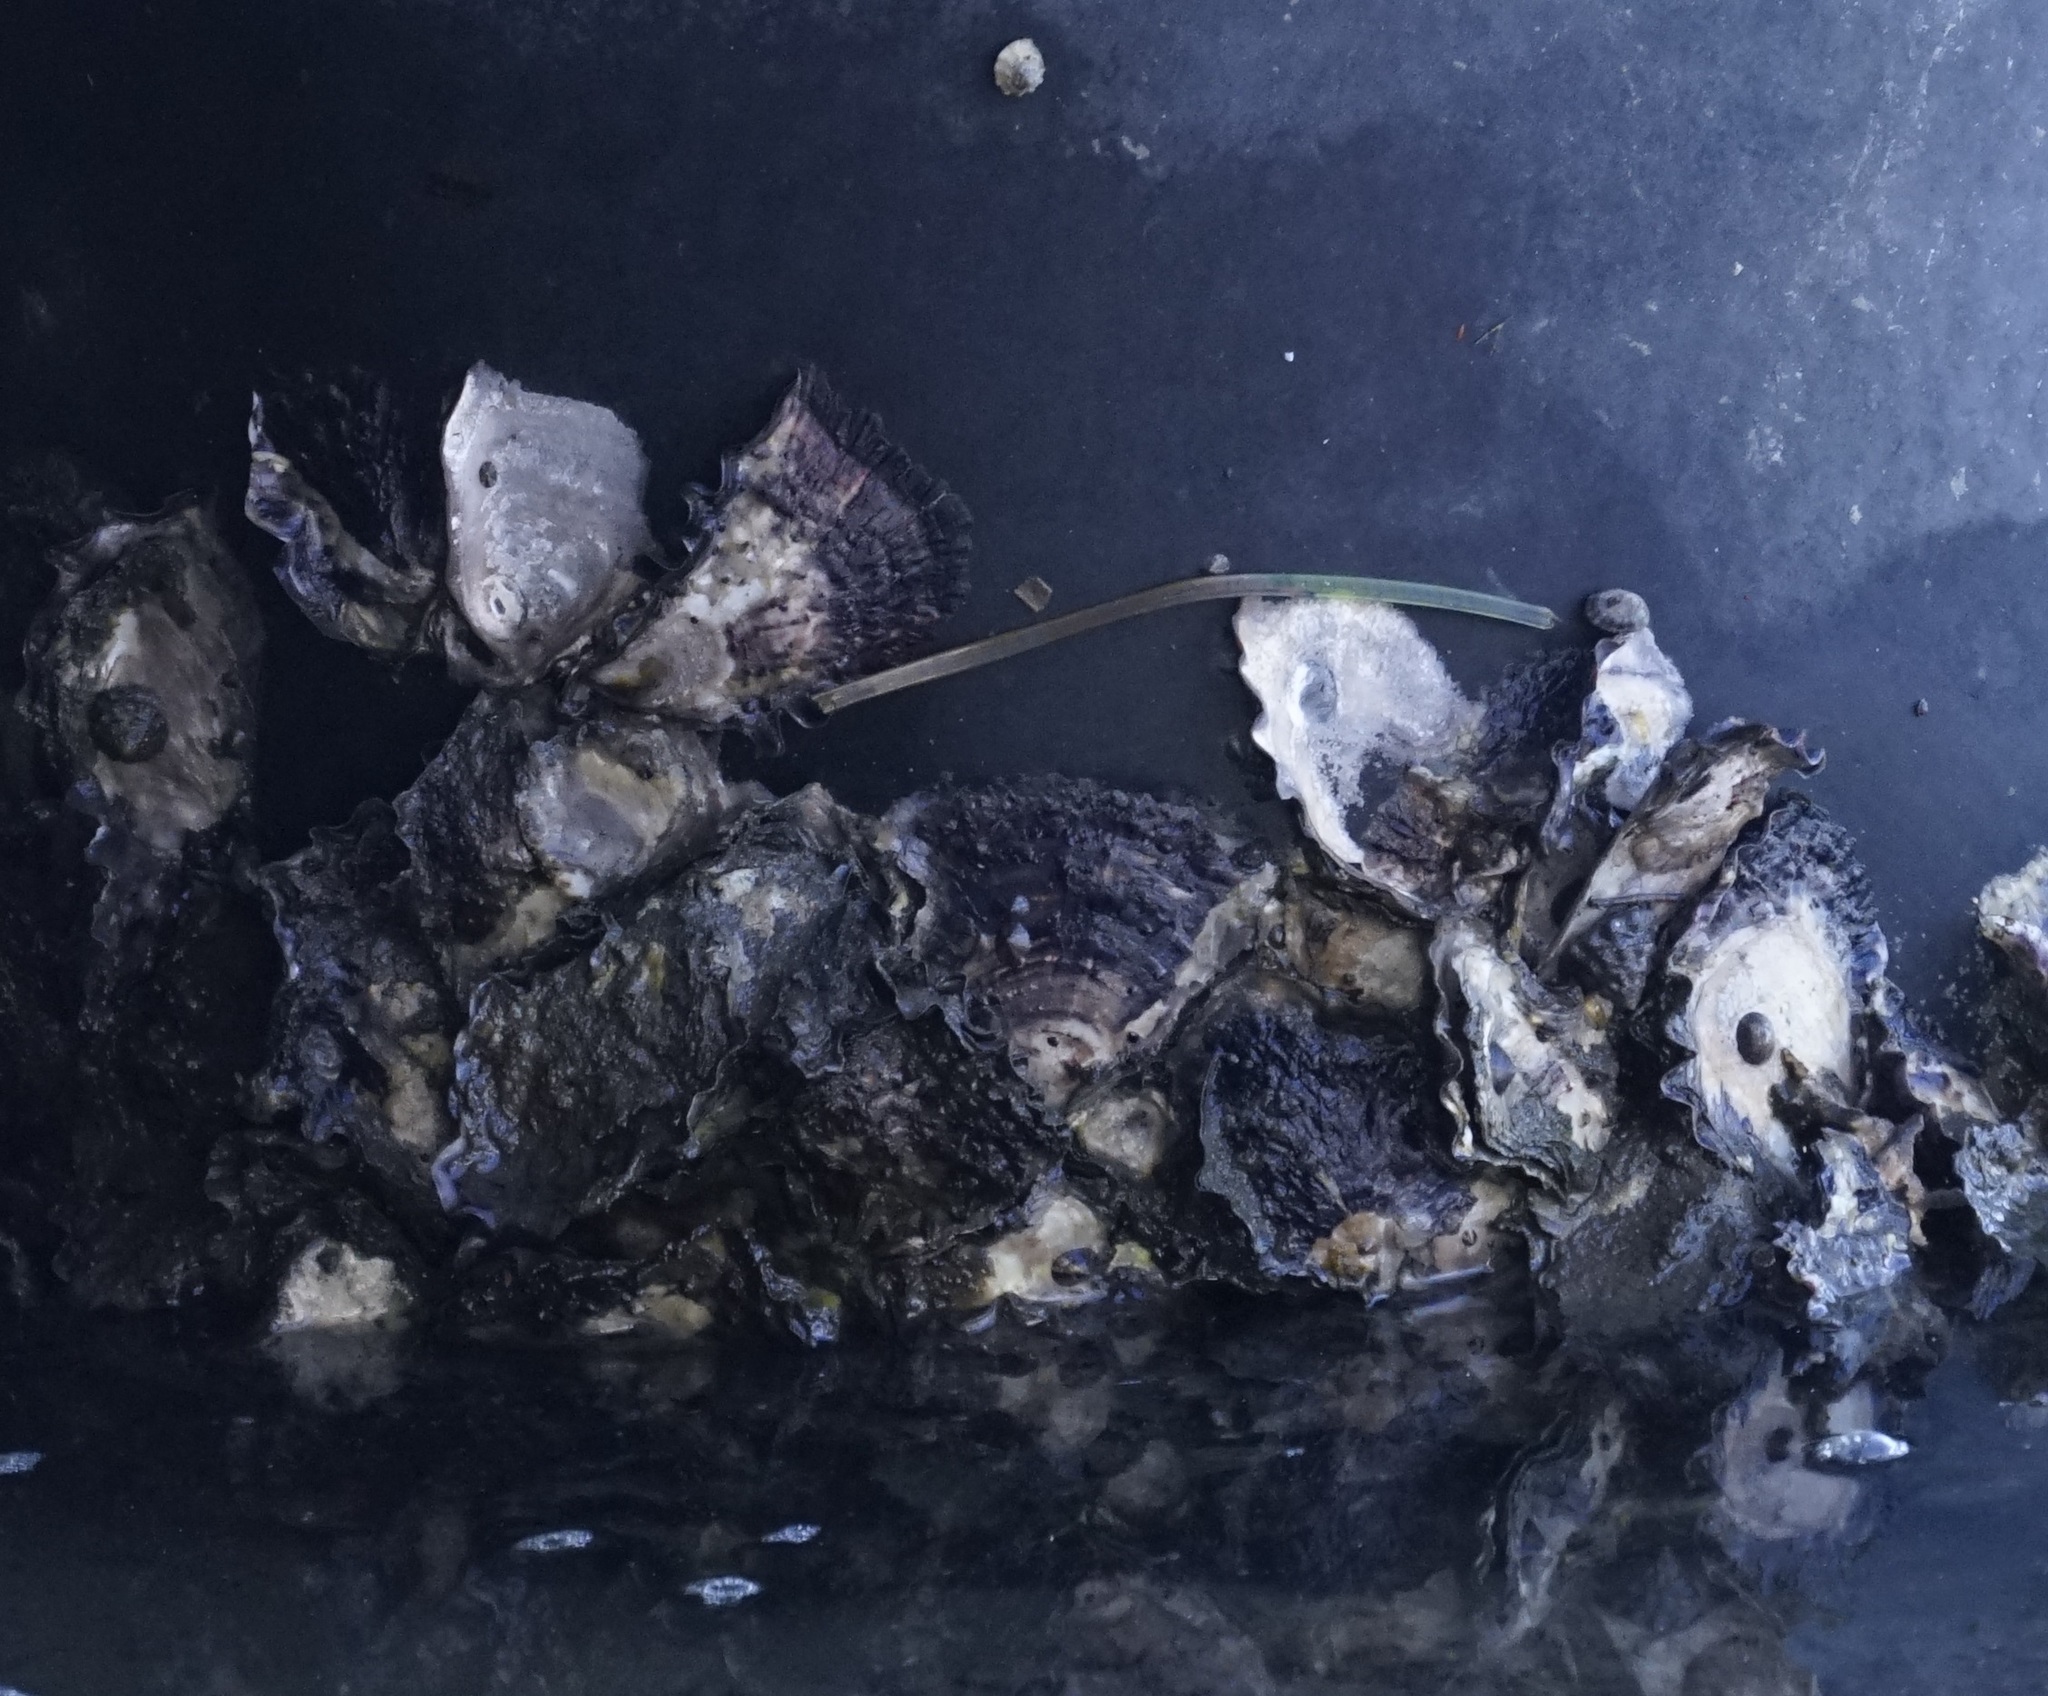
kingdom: Animalia
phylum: Mollusca
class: Bivalvia
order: Ostreida
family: Ostreidae
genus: Saccostrea
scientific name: Saccostrea glomerata
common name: Sydney cupped oyster
